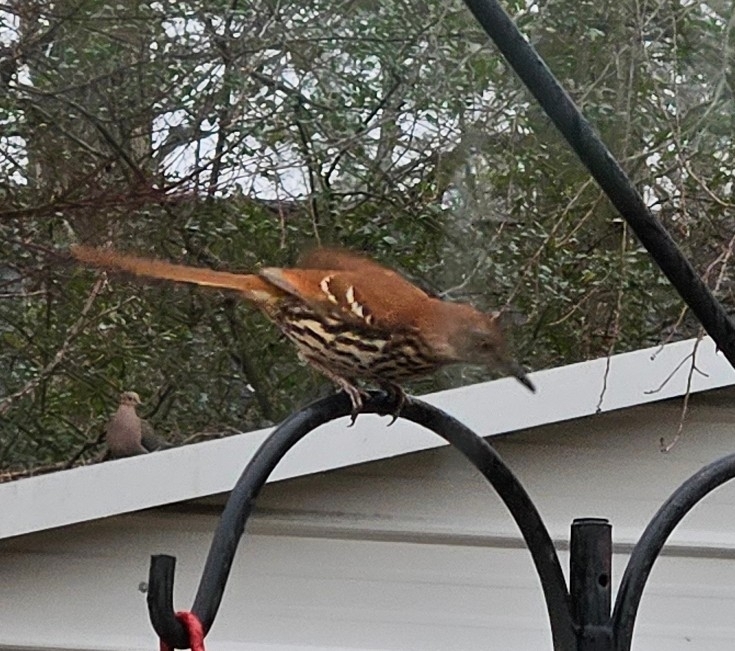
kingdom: Animalia
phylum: Chordata
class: Aves
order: Passeriformes
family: Mimidae
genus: Toxostoma
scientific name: Toxostoma rufum
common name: Brown thrasher
